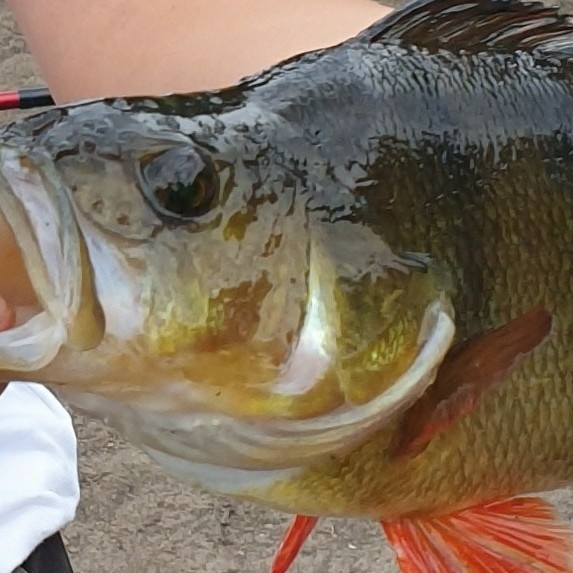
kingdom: Animalia
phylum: Chordata
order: Perciformes
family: Percidae
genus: Perca
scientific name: Perca fluviatilis
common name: Perch
